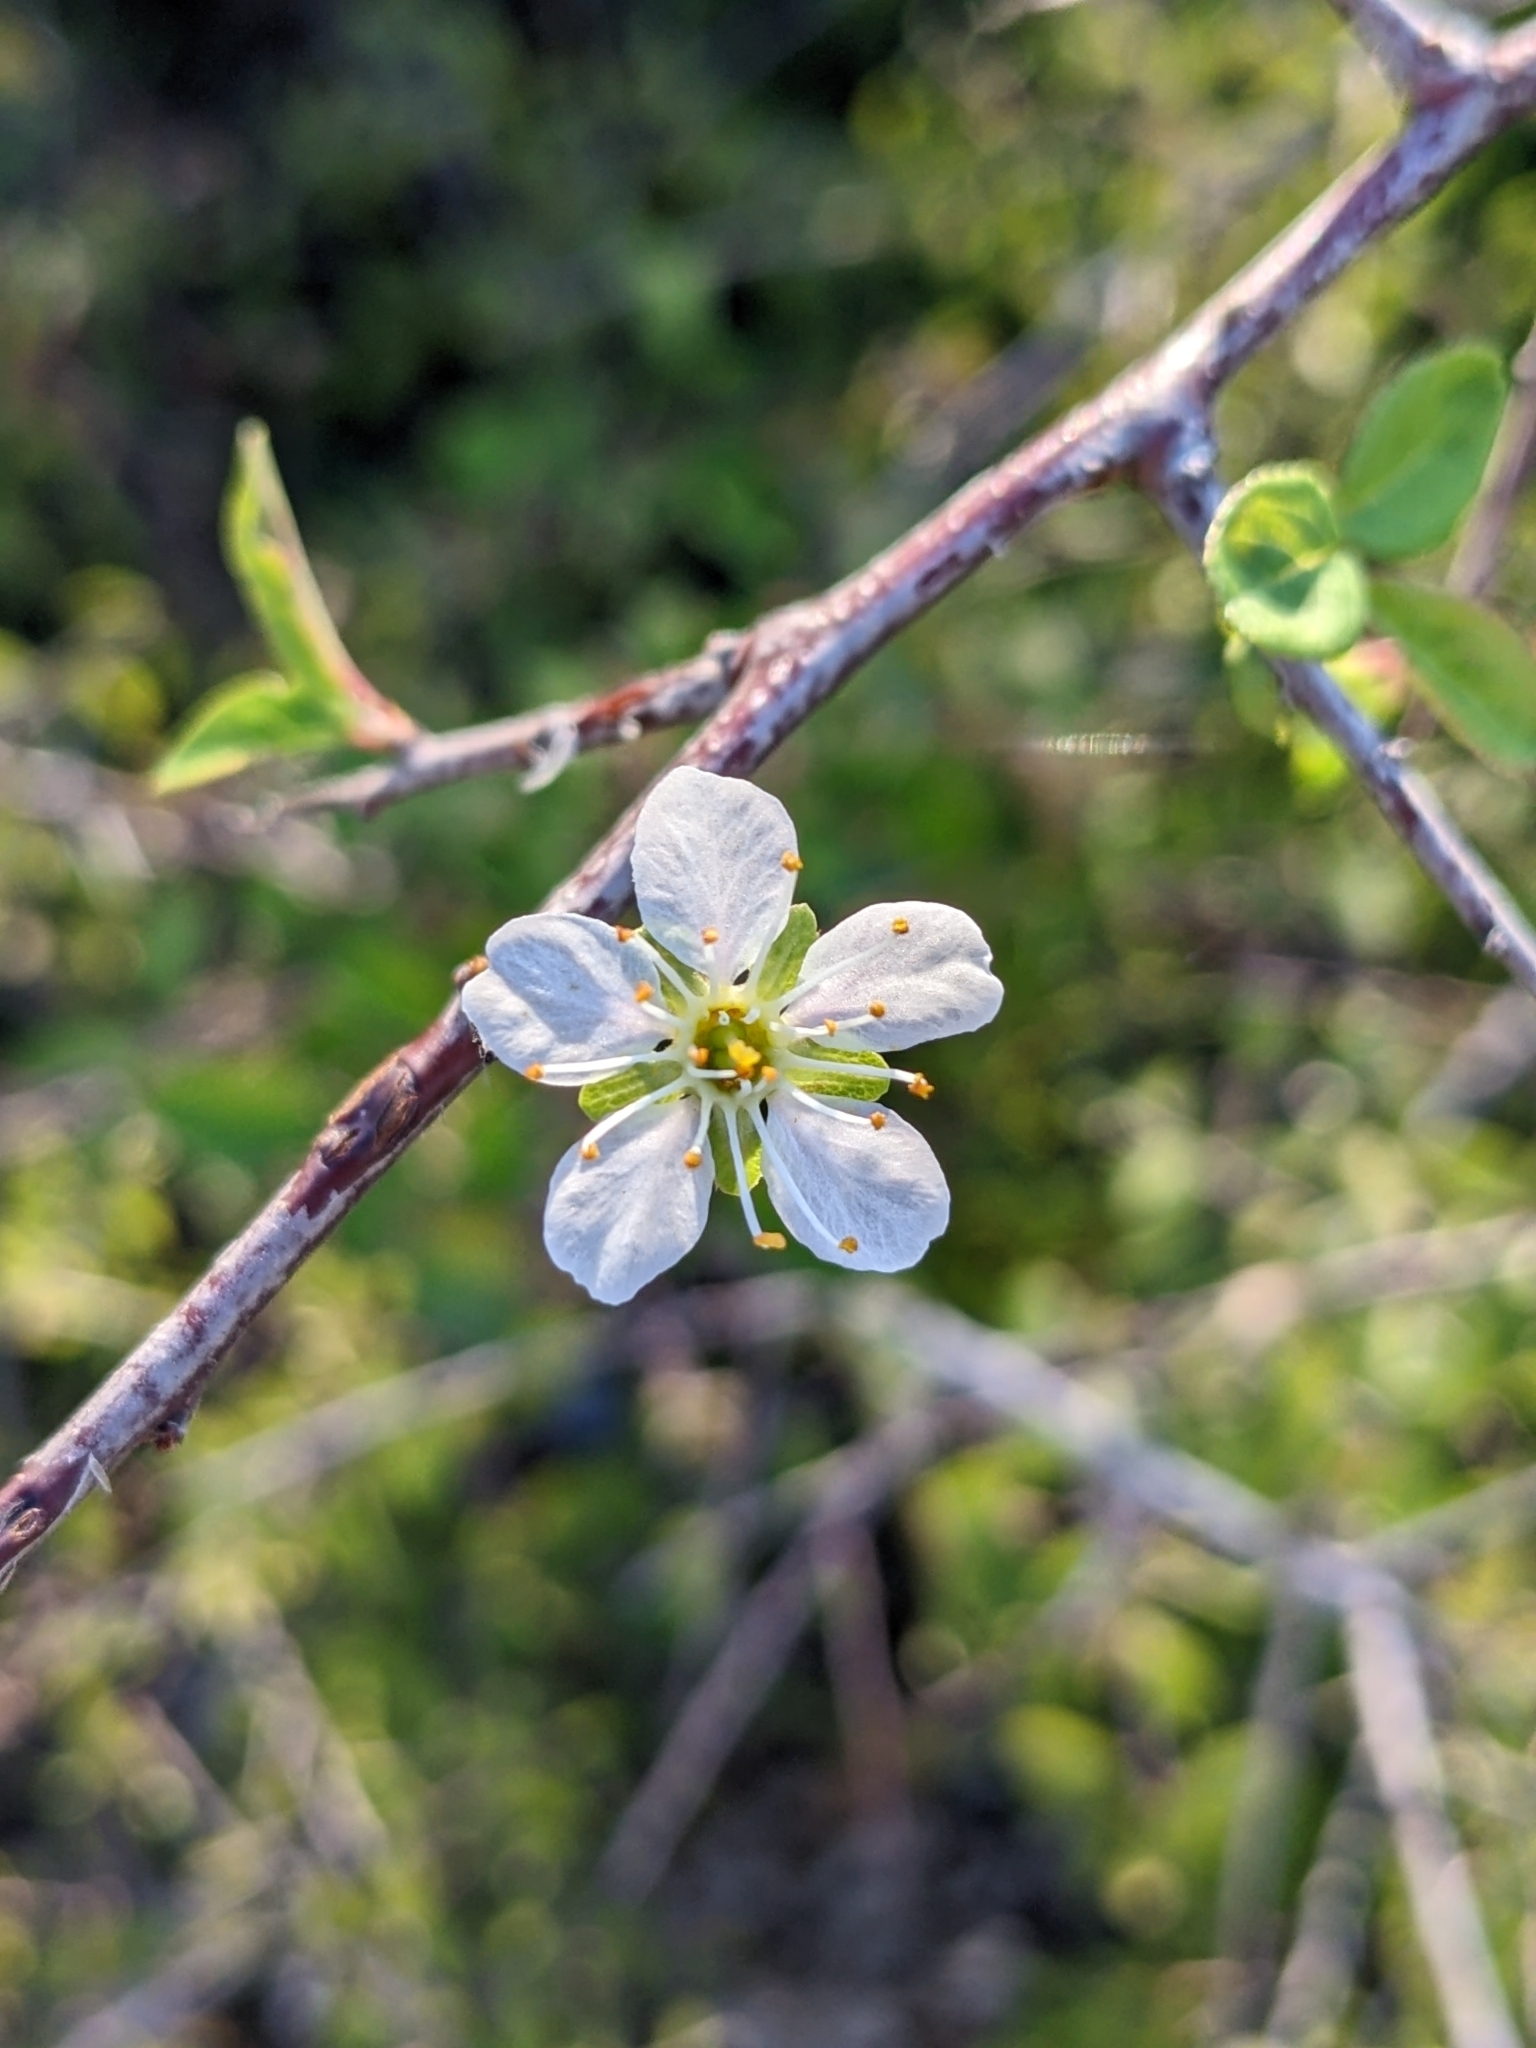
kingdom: Plantae
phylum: Tracheophyta
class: Magnoliopsida
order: Rosales
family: Rosaceae
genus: Prunus
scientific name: Prunus spinosa
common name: Blackthorn
